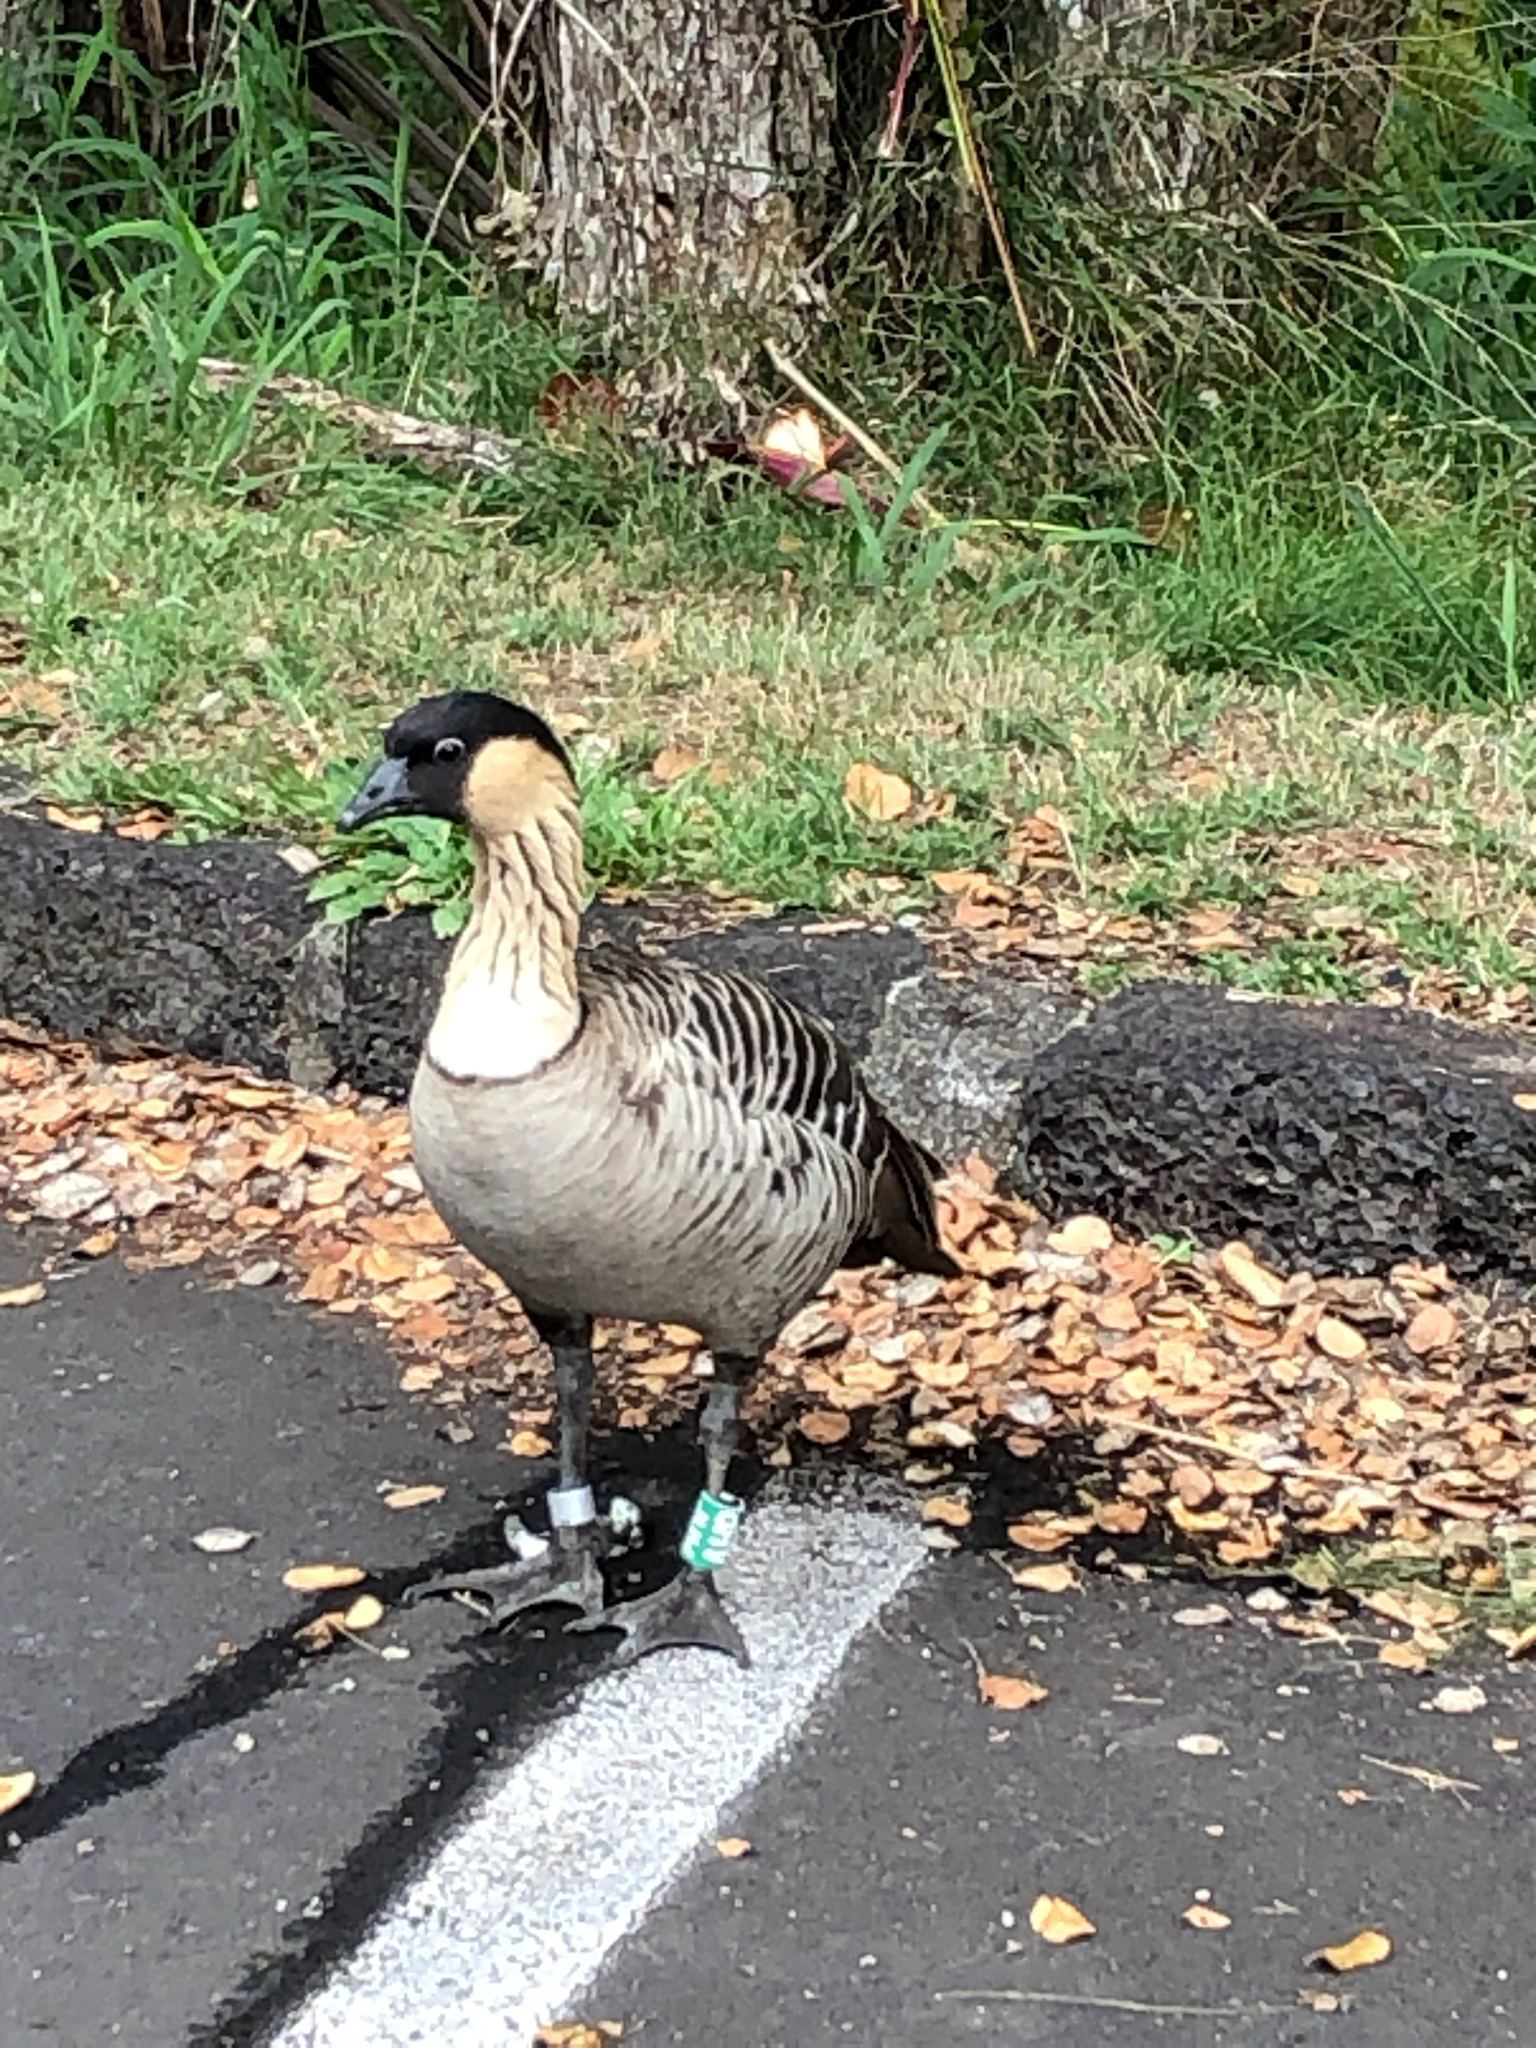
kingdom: Animalia
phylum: Chordata
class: Aves
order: Anseriformes
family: Anatidae
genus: Branta
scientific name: Branta sandvicensis
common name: Nene
